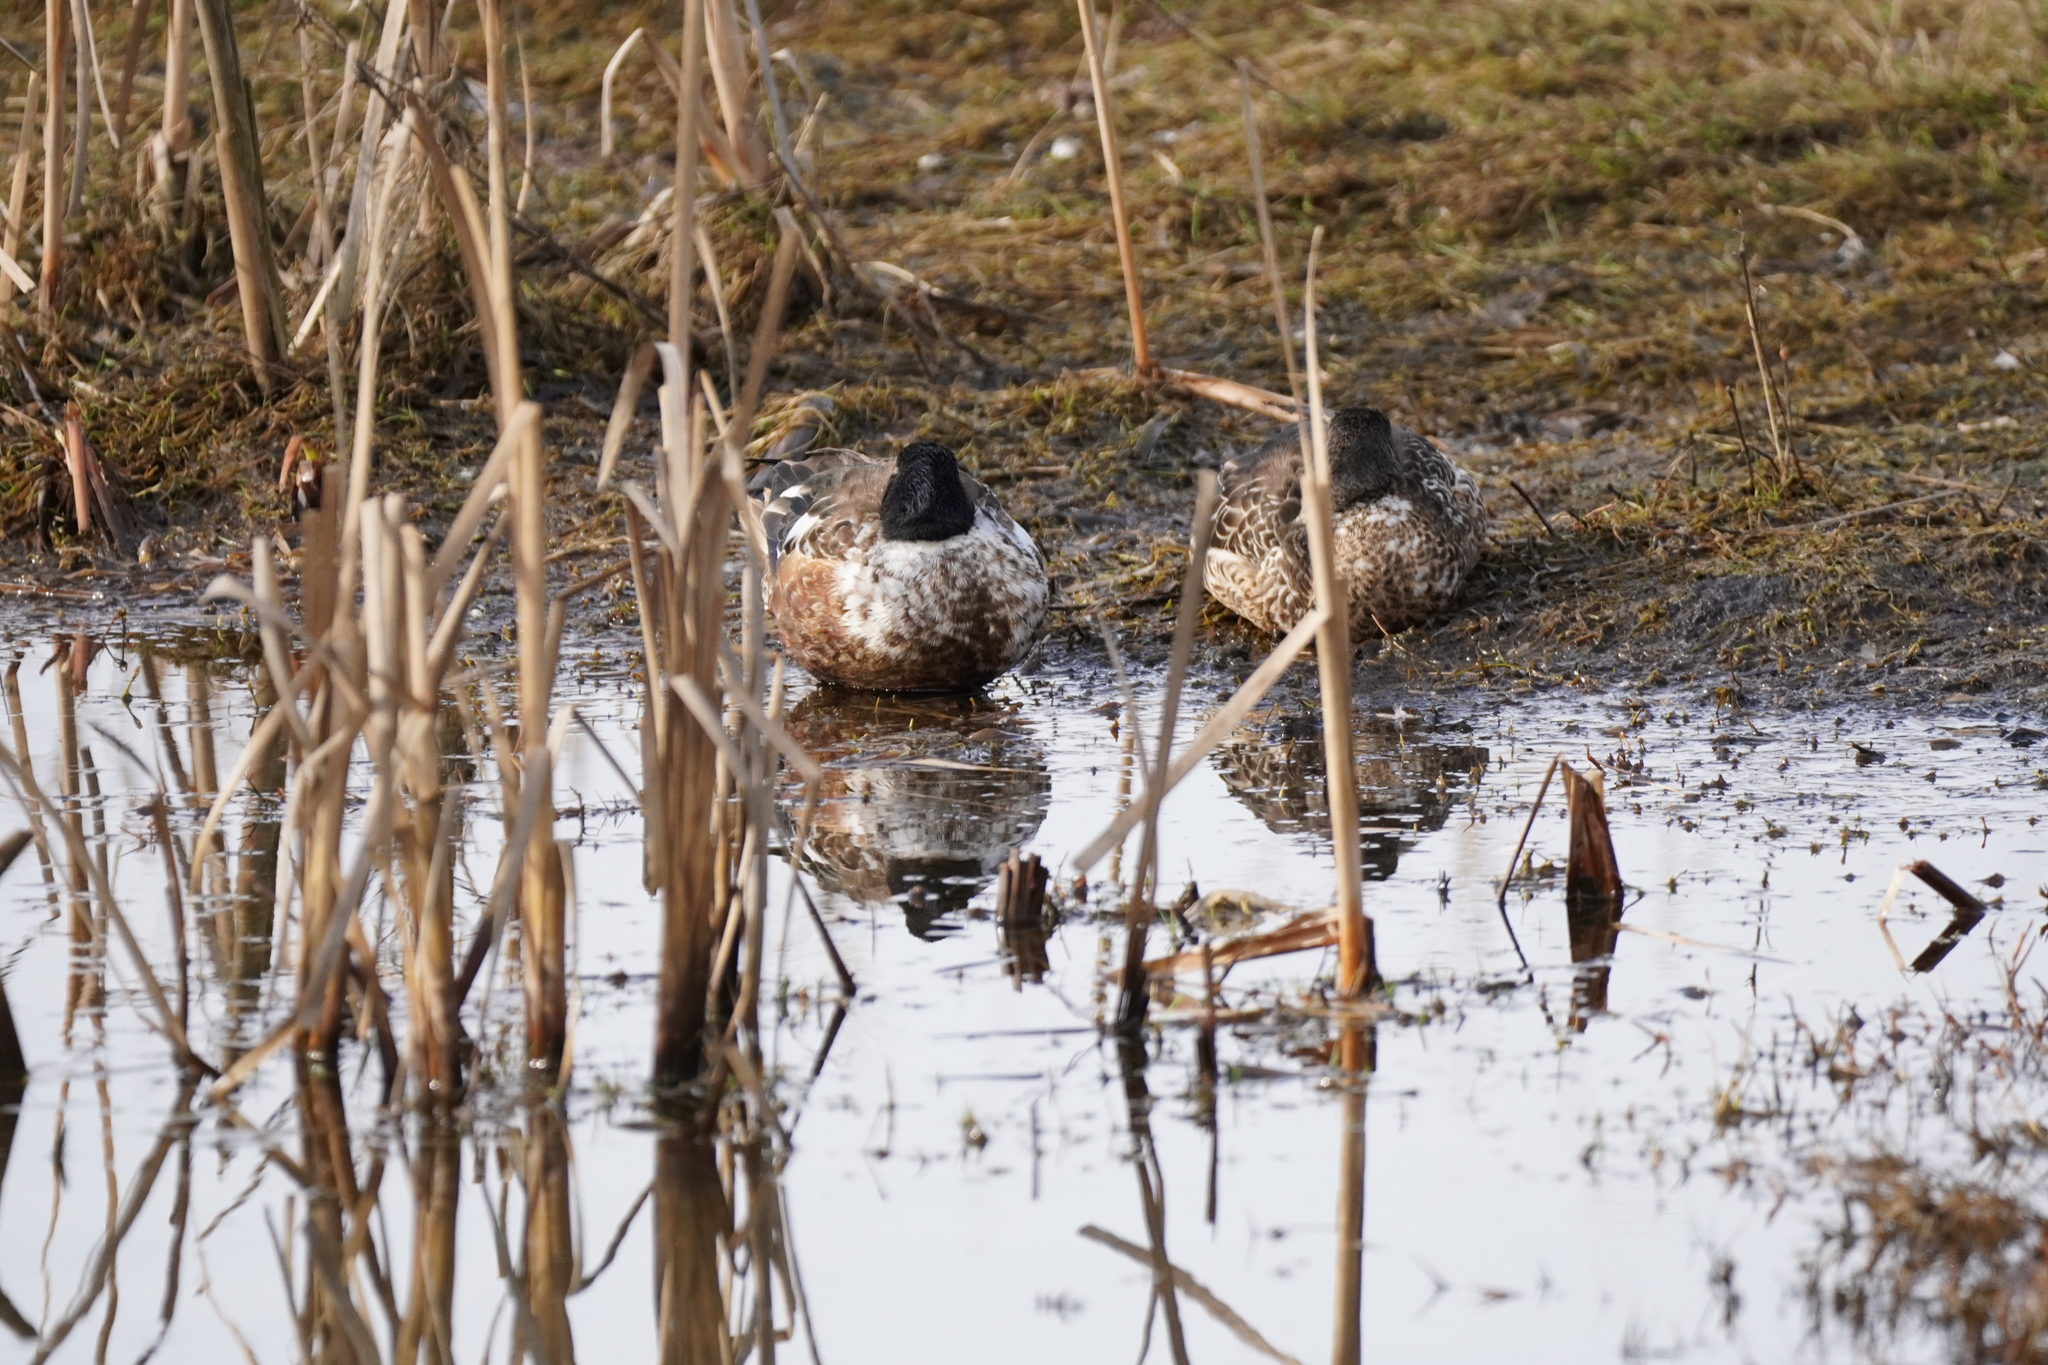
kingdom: Animalia
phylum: Chordata
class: Aves
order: Anseriformes
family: Anatidae
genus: Spatula
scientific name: Spatula clypeata
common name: Northern shoveler
